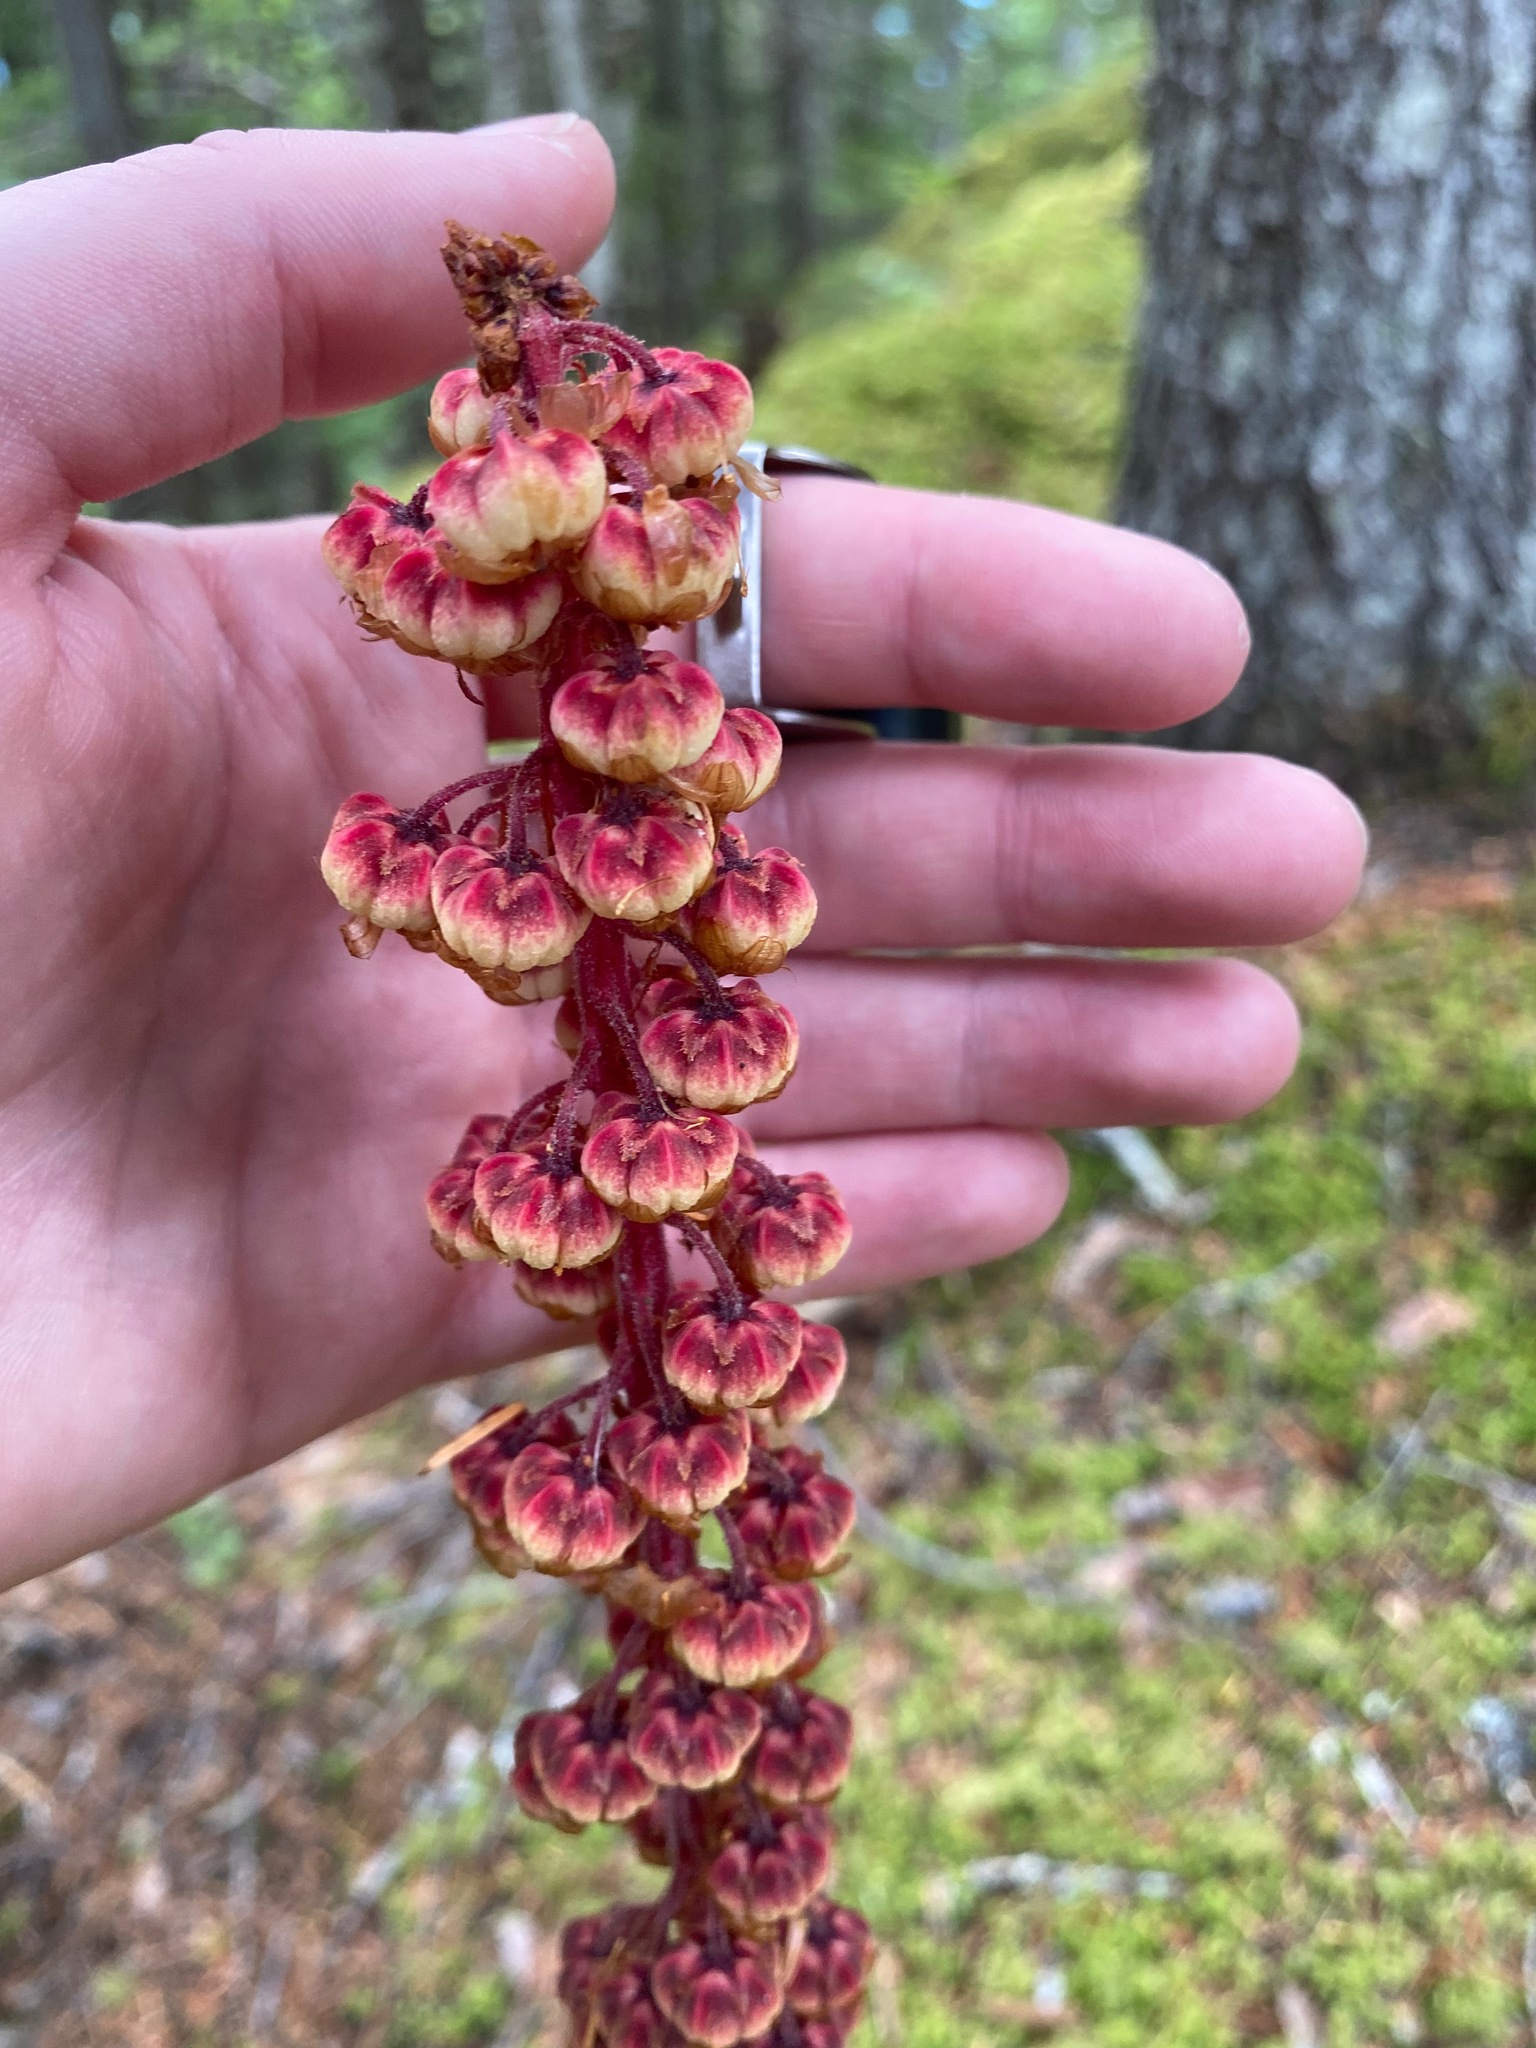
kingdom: Plantae
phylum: Tracheophyta
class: Magnoliopsida
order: Ericales
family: Ericaceae
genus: Pterospora
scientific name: Pterospora andromedea
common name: Giant bird's-nest
